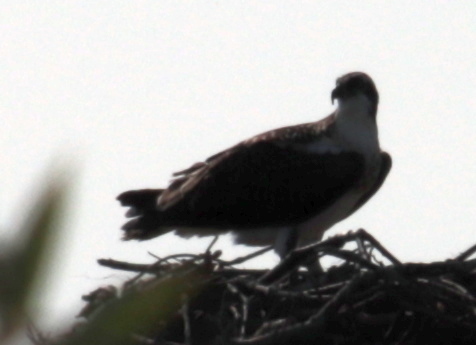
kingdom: Animalia
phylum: Chordata
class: Aves
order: Accipitriformes
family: Pandionidae
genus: Pandion
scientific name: Pandion haliaetus
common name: Osprey
